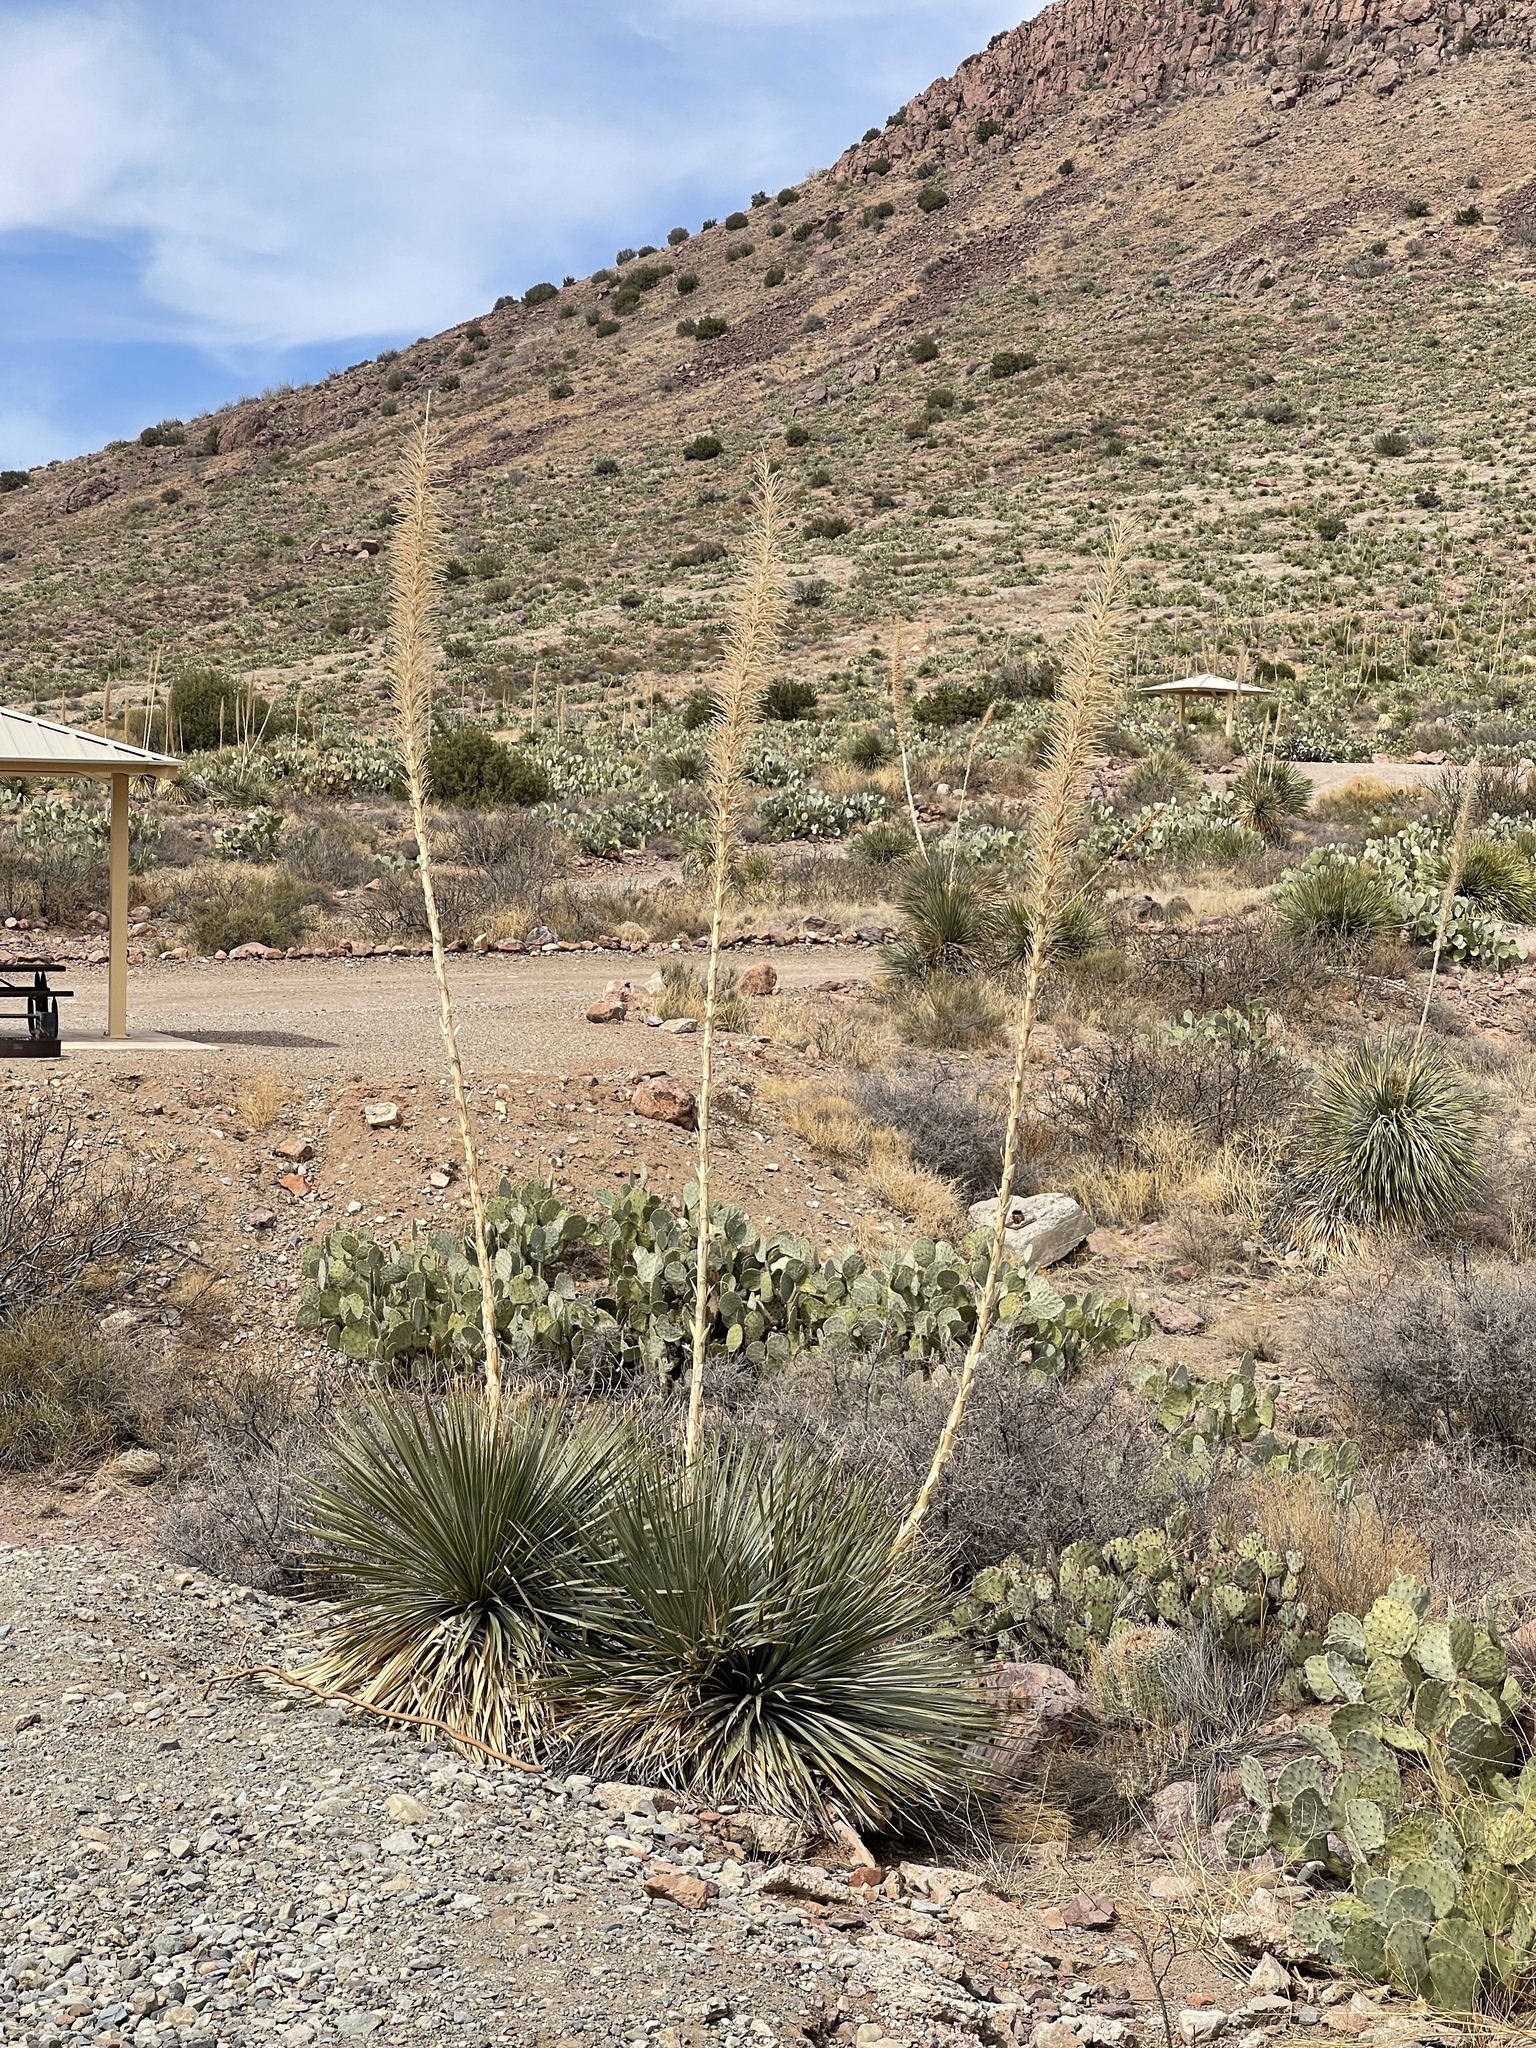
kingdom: Plantae
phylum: Tracheophyta
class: Liliopsida
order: Asparagales
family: Asparagaceae
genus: Dasylirion
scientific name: Dasylirion wheeleri
